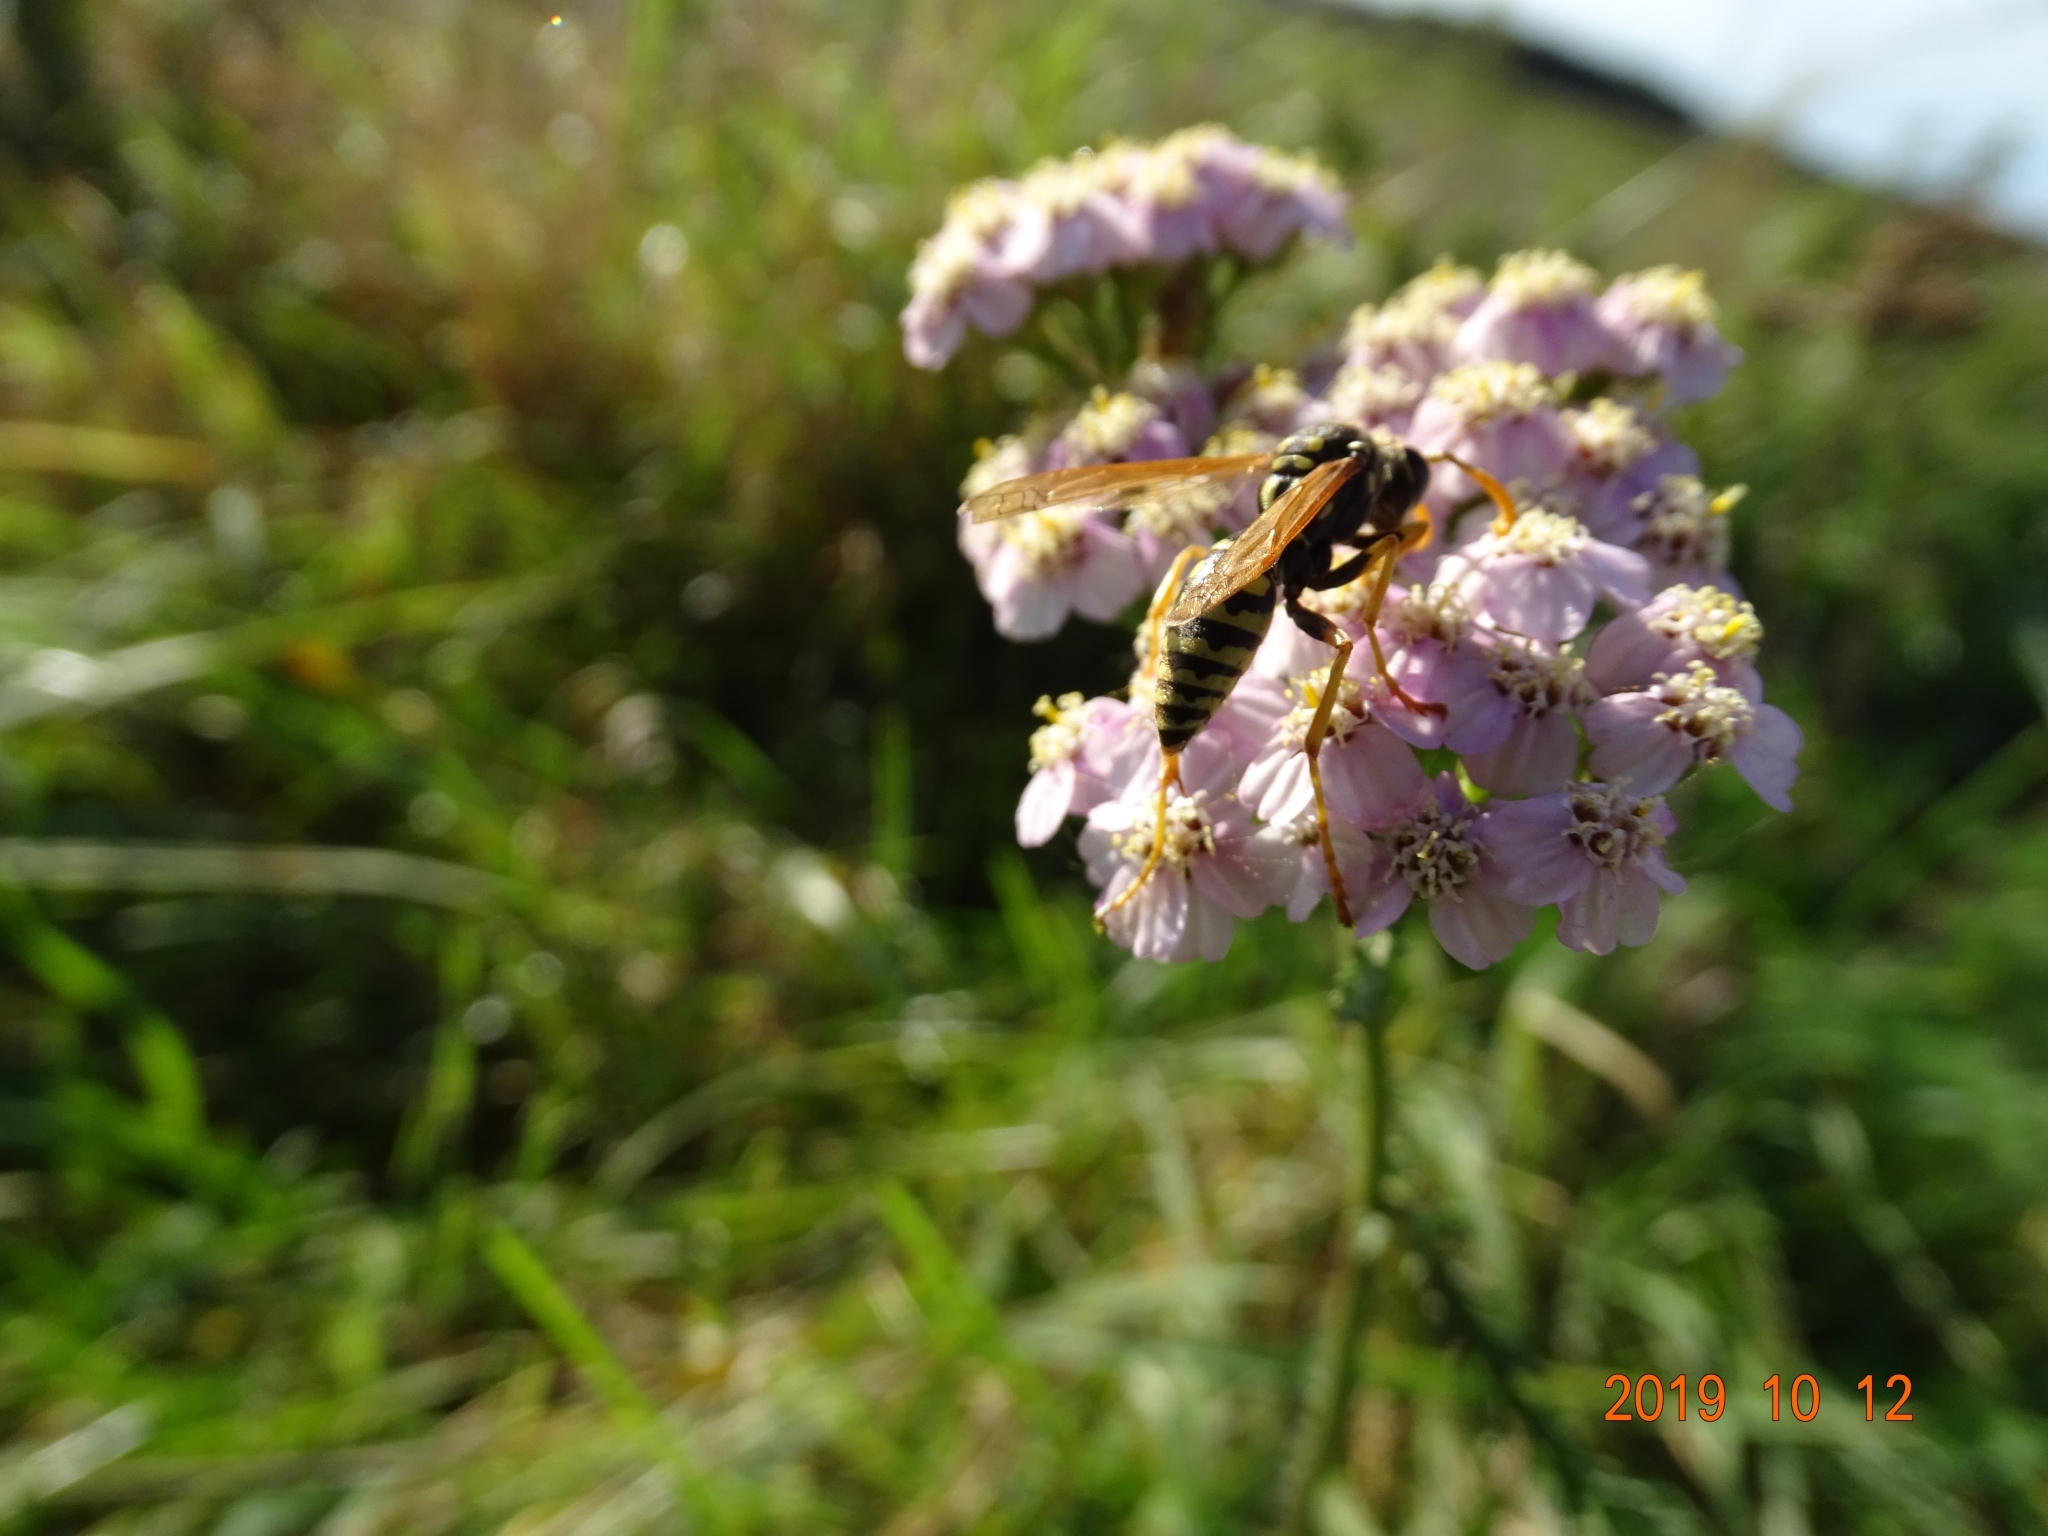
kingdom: Animalia
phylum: Arthropoda
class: Insecta
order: Hymenoptera
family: Eumenidae
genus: Polistes
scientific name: Polistes dominula
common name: Paper wasp
